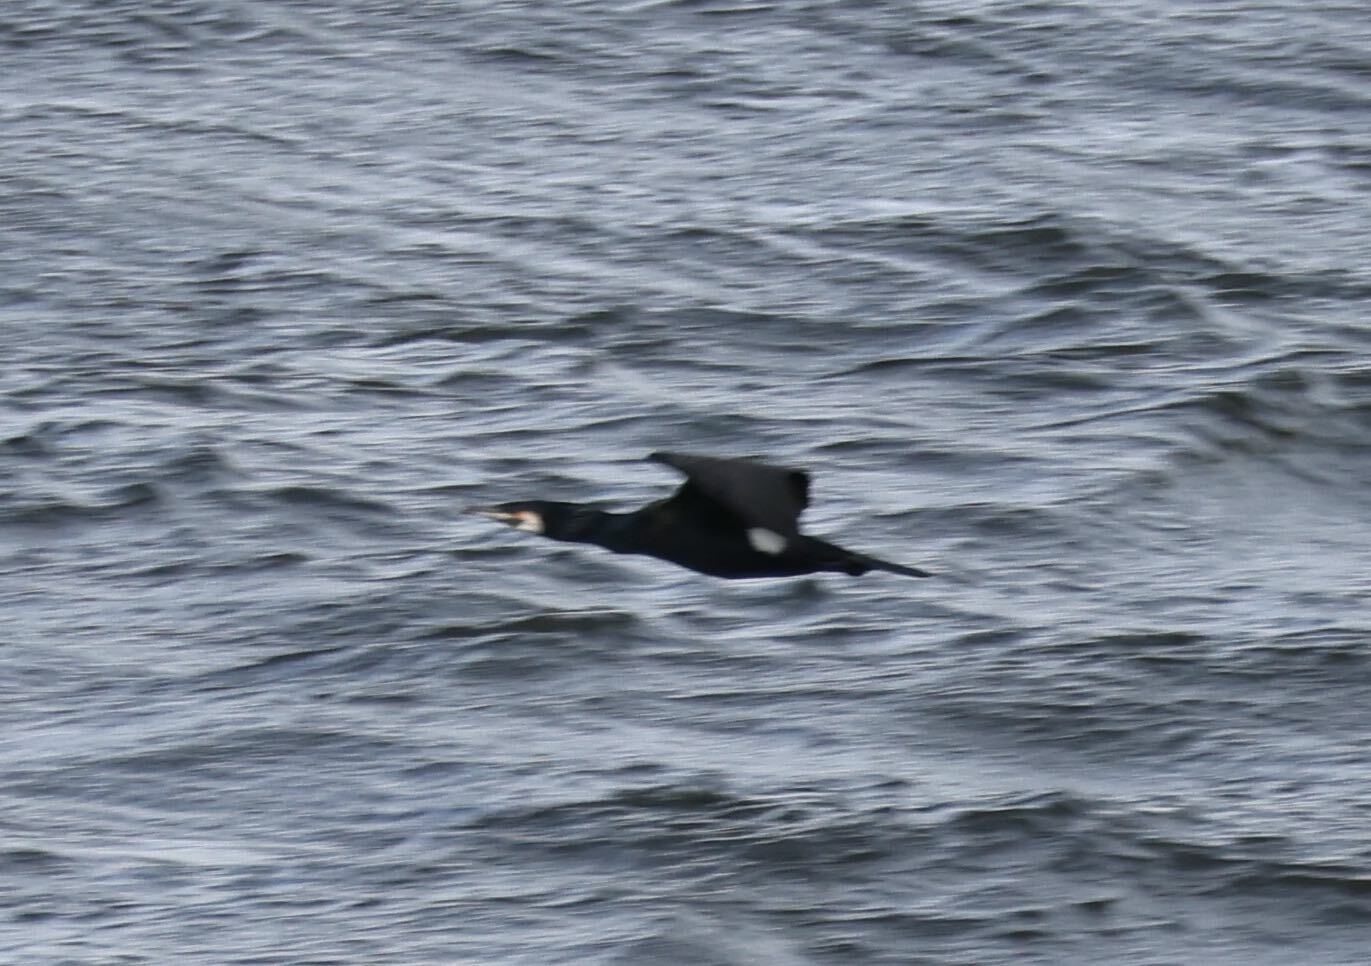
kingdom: Animalia
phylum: Chordata
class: Aves
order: Suliformes
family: Phalacrocoracidae
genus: Phalacrocorax
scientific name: Phalacrocorax carbo
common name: Great cormorant
